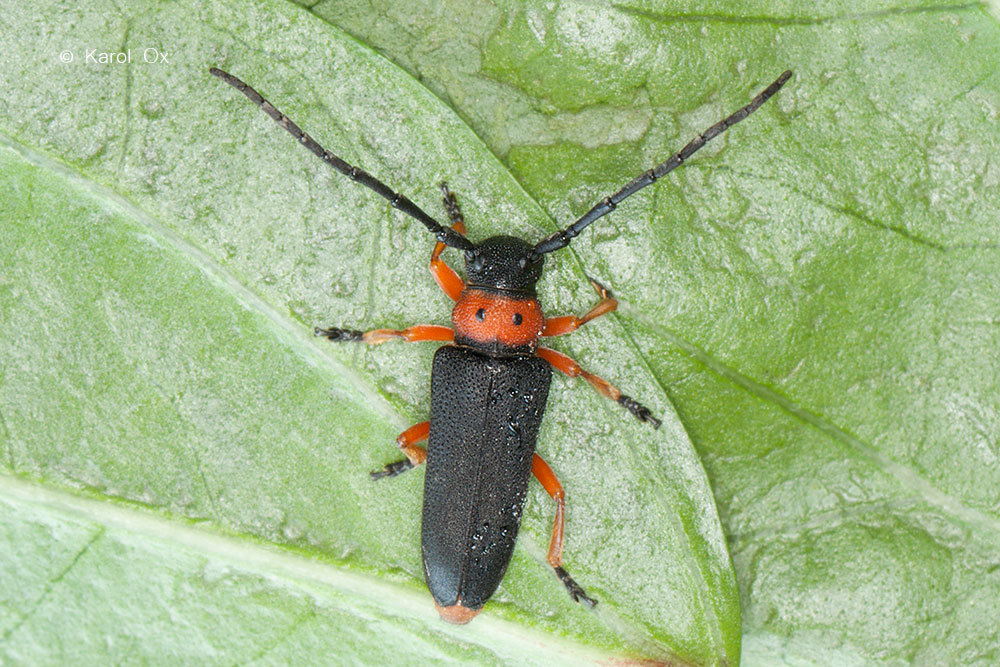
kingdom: Animalia
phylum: Arthropoda
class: Insecta
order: Coleoptera
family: Cerambycidae
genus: Phytoecia
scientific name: Phytoecia affinis
